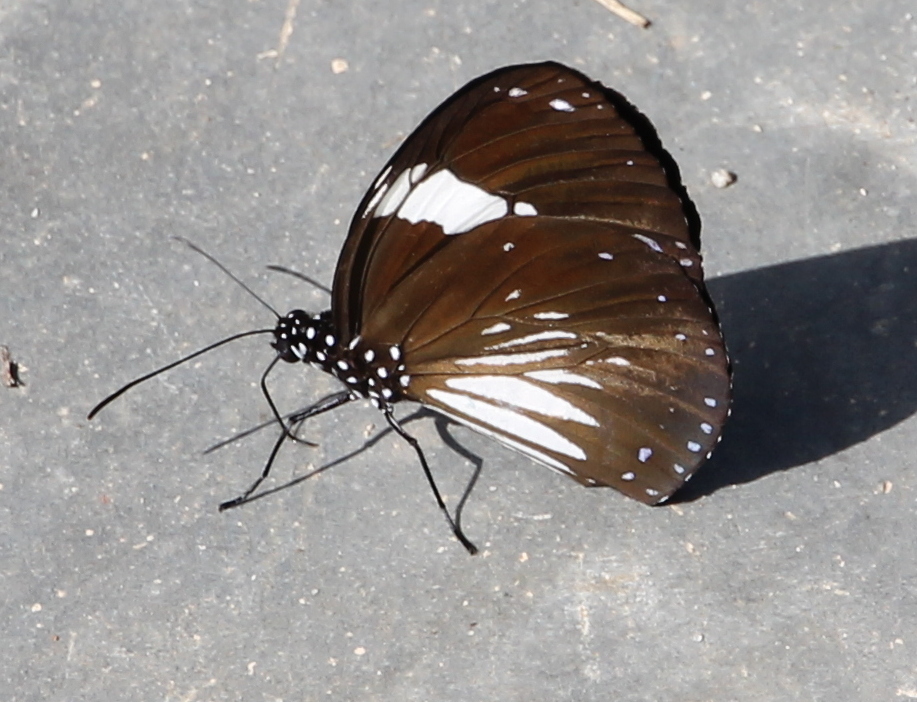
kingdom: Animalia
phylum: Arthropoda
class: Insecta
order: Lepidoptera
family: Nymphalidae
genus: Euploea
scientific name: Euploea radamanthus
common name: Magpie crow butterfly
